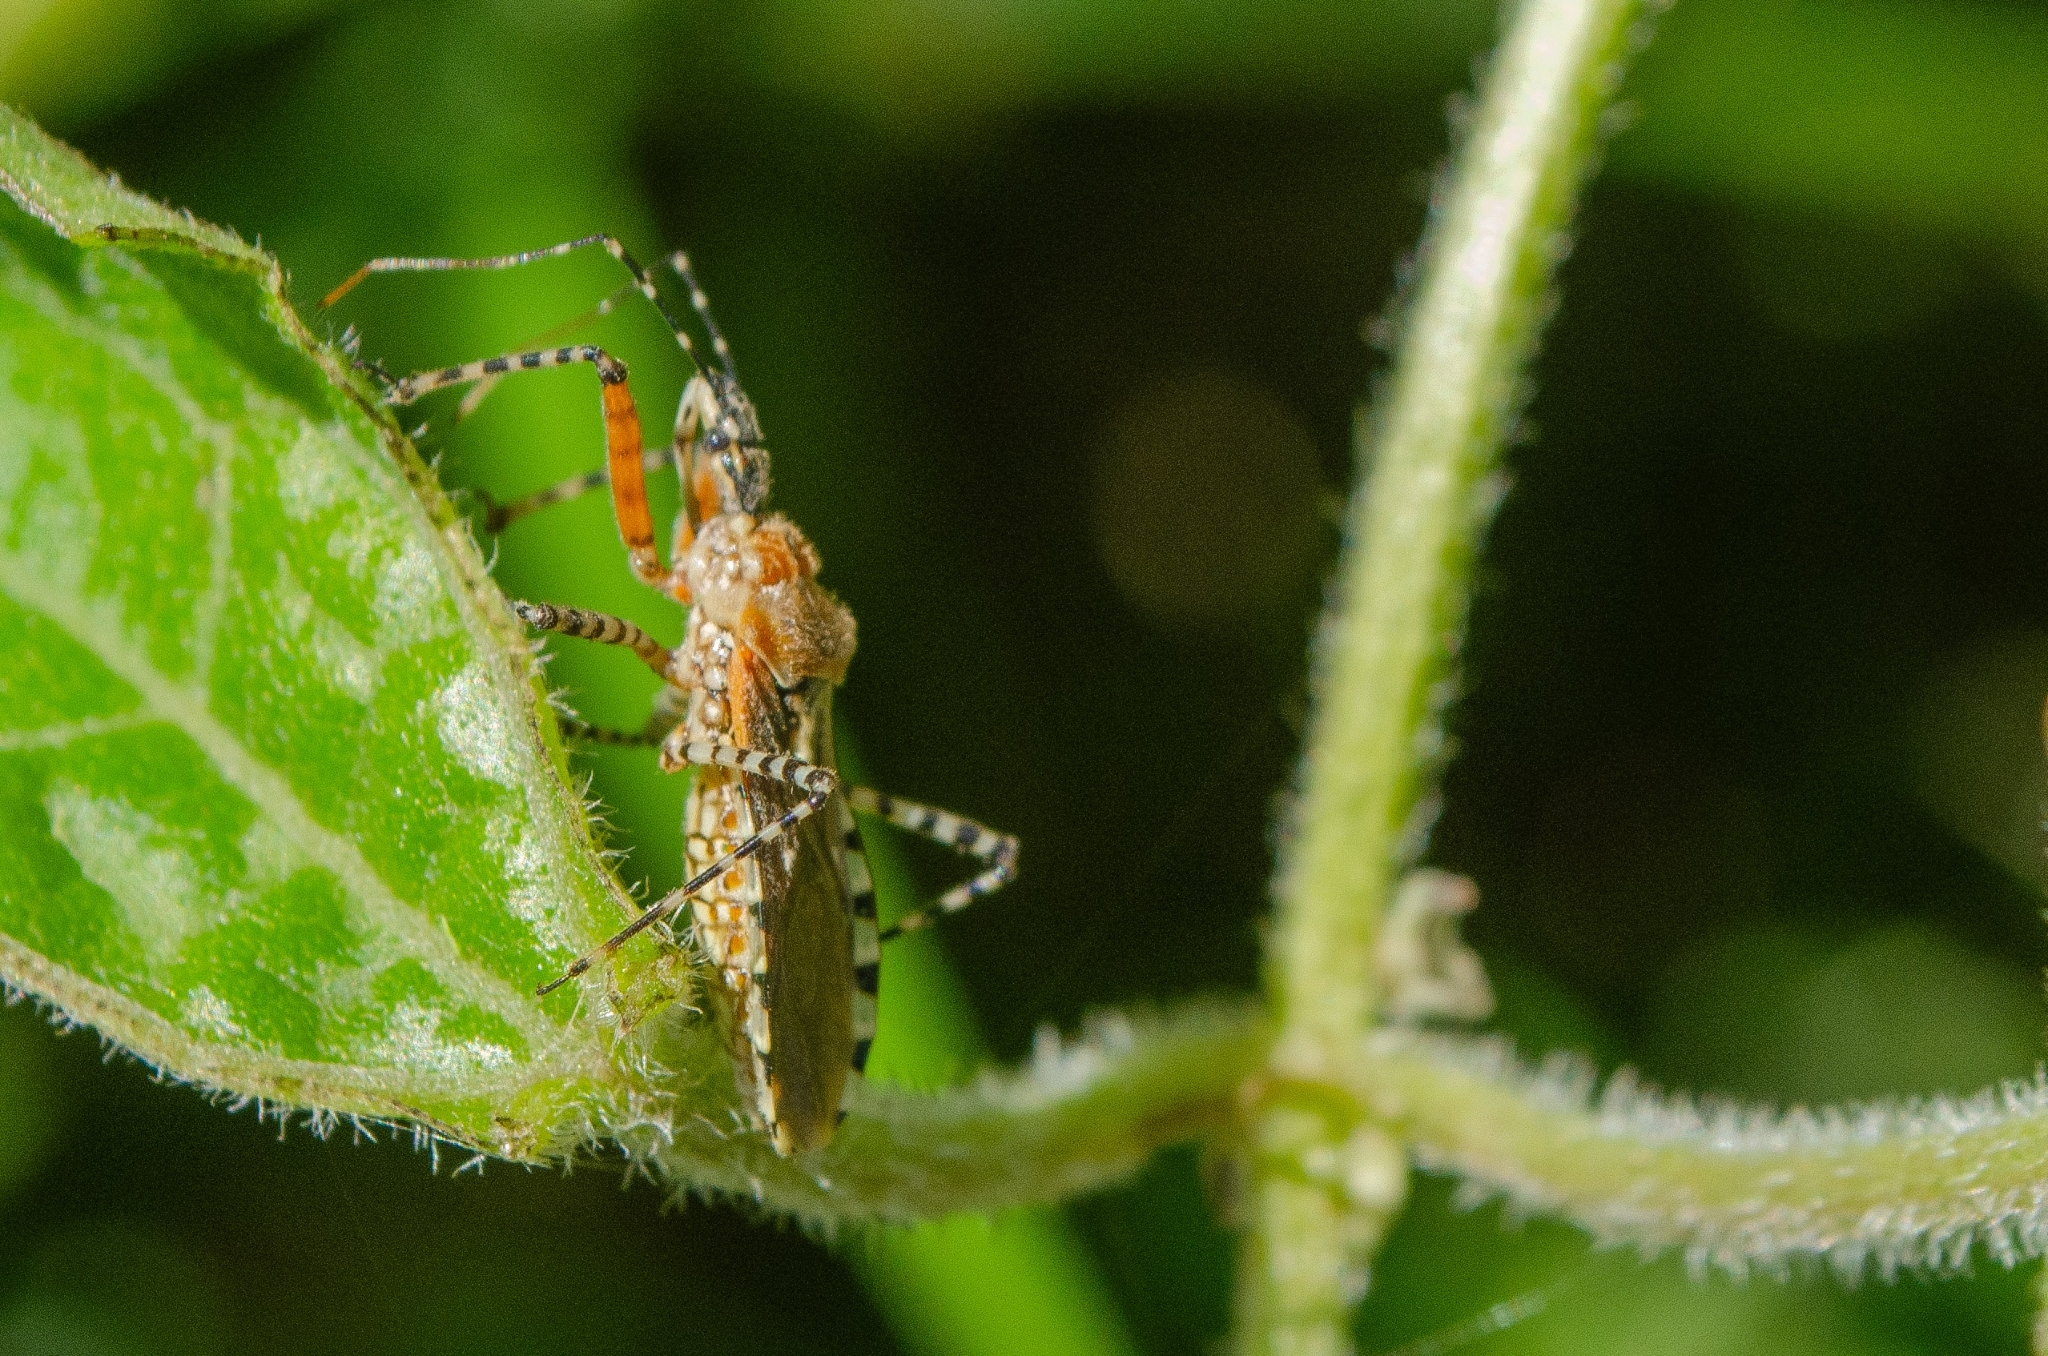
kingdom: Animalia
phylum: Arthropoda
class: Insecta
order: Hemiptera
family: Reduviidae
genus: Cosmoclopius
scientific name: Cosmoclopius nigroannulatus
